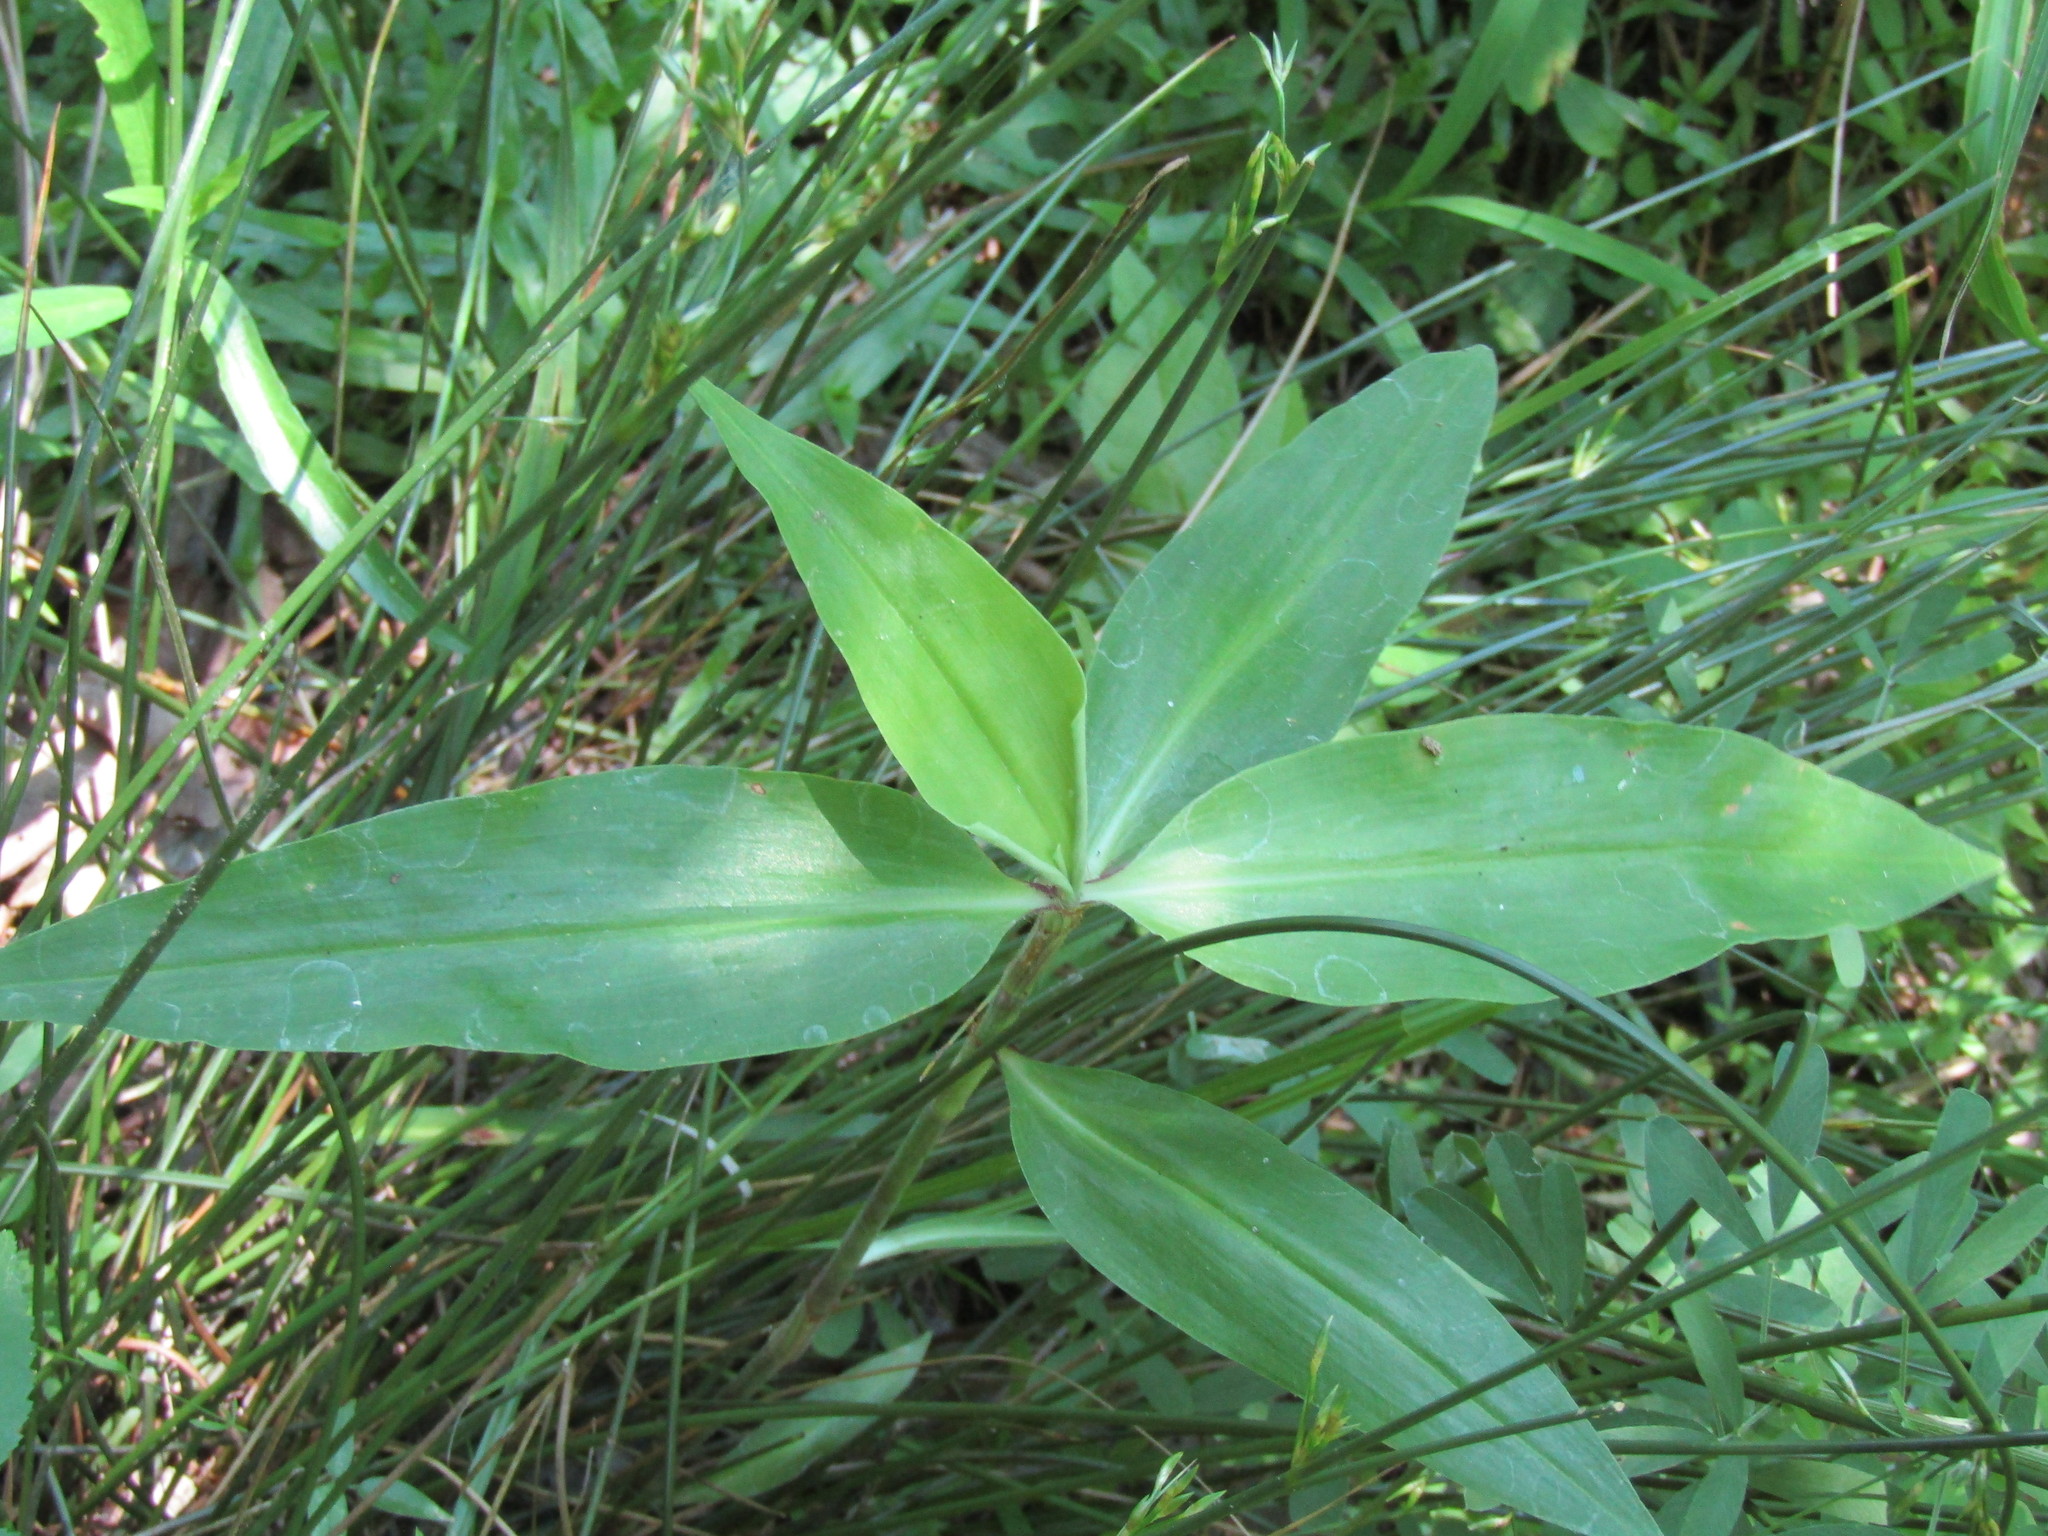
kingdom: Plantae
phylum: Tracheophyta
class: Liliopsida
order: Commelinales
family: Commelinaceae
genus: Commelina
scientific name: Commelina virginica
